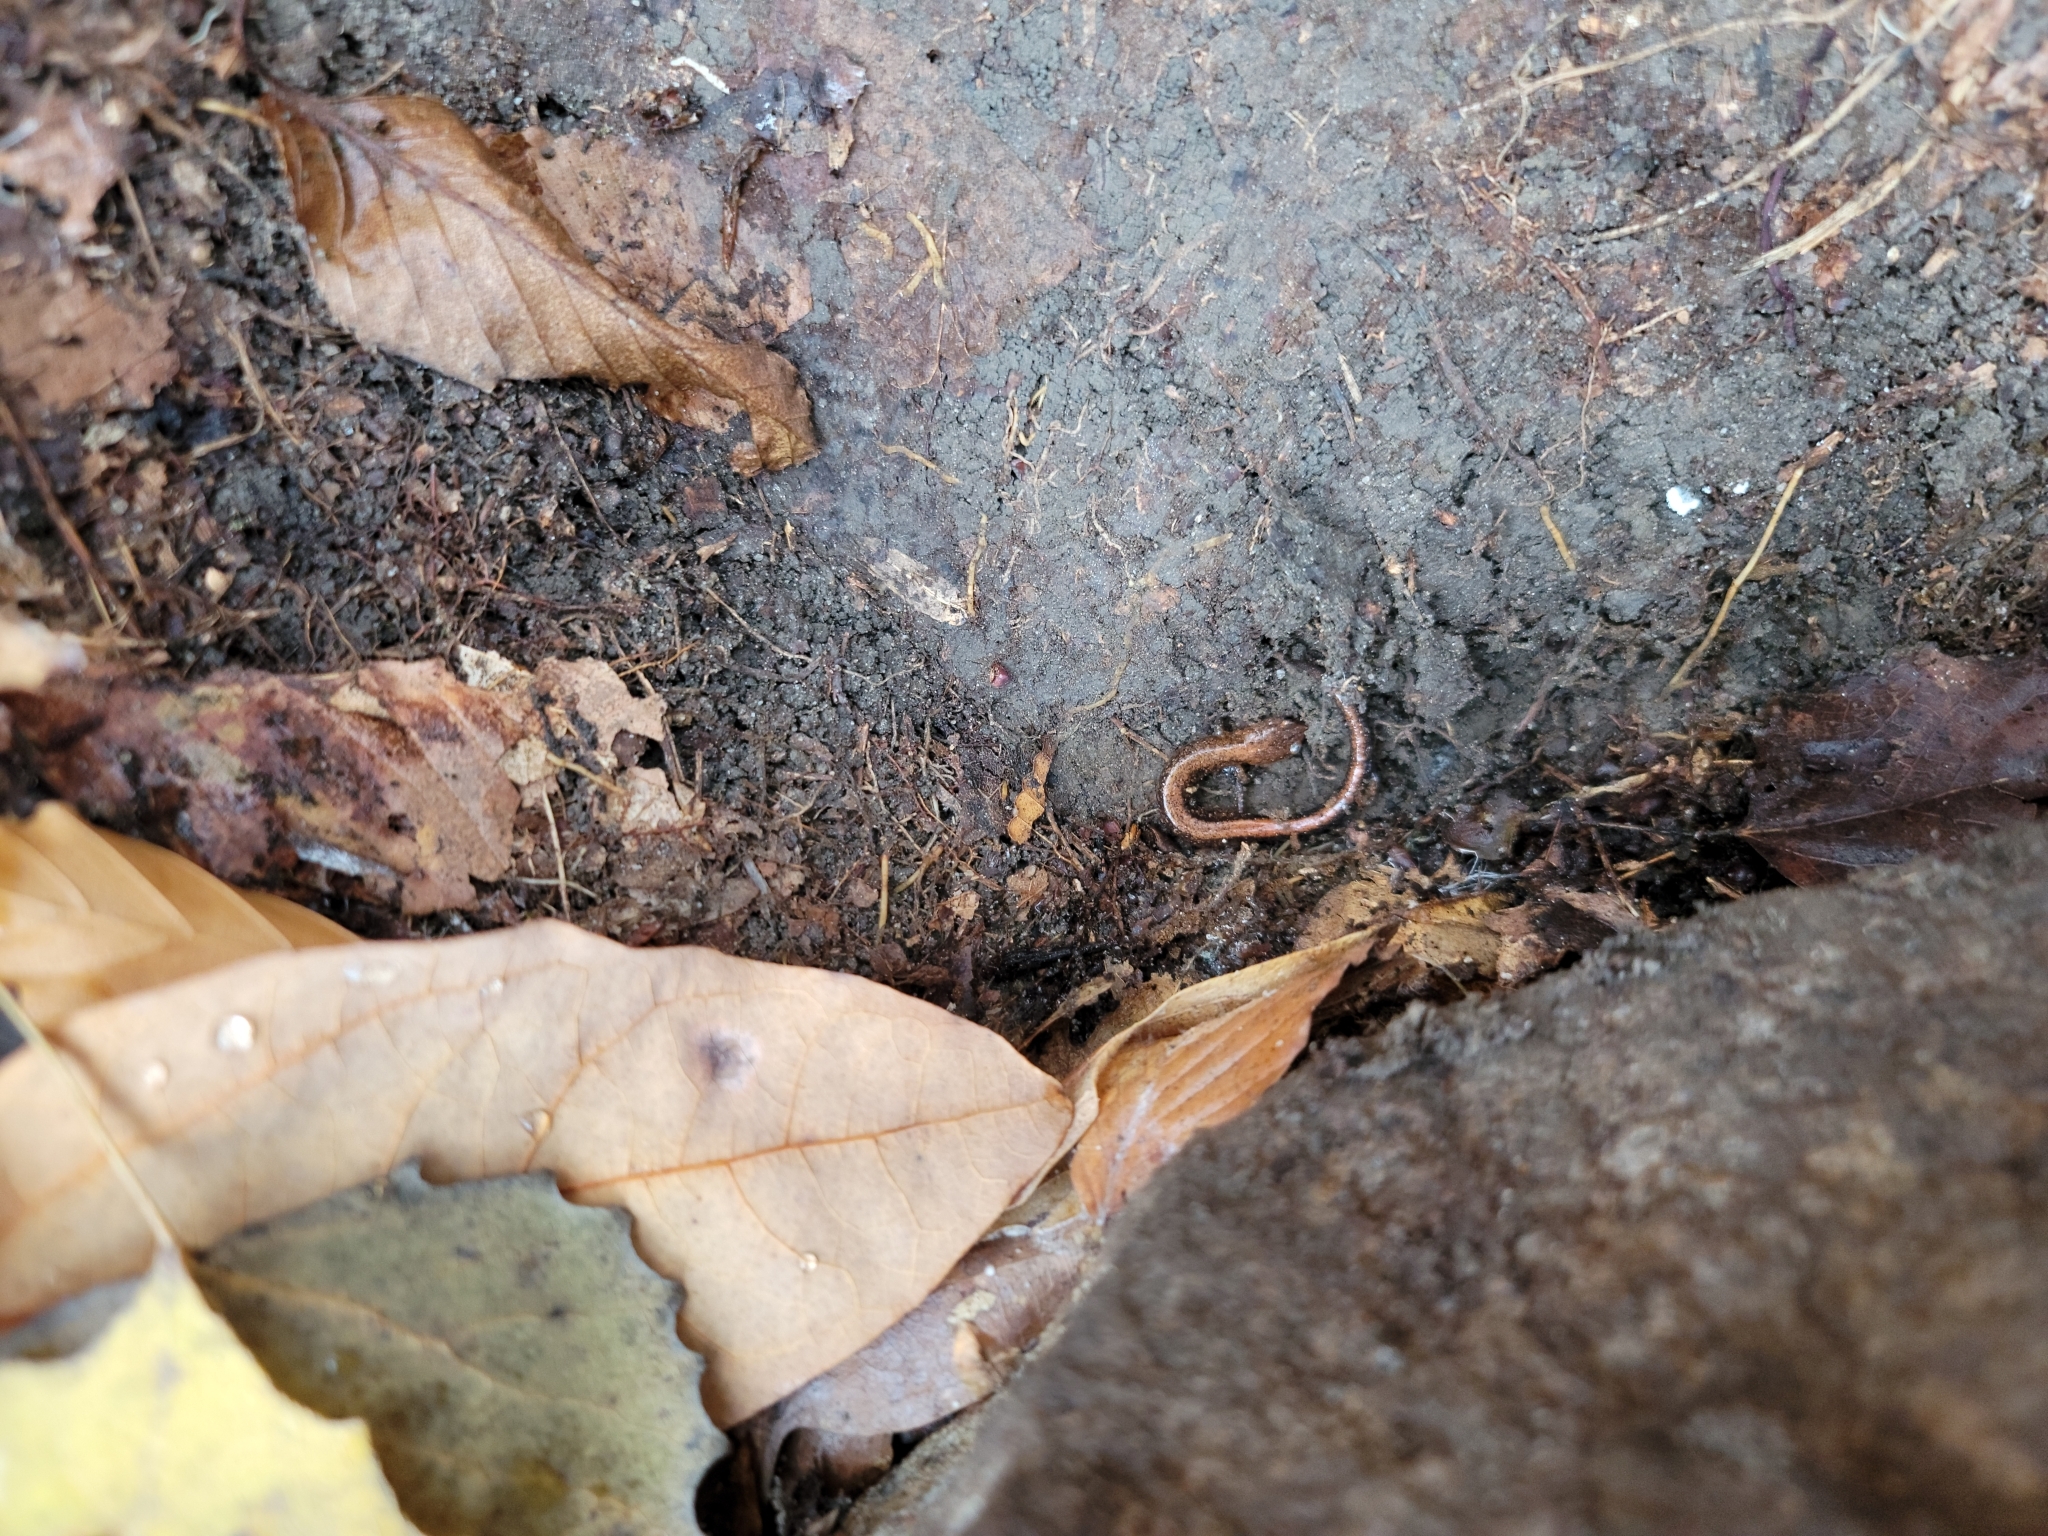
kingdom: Animalia
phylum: Chordata
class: Amphibia
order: Caudata
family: Plethodontidae
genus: Plethodon
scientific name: Plethodon cinereus
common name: Redback salamander
